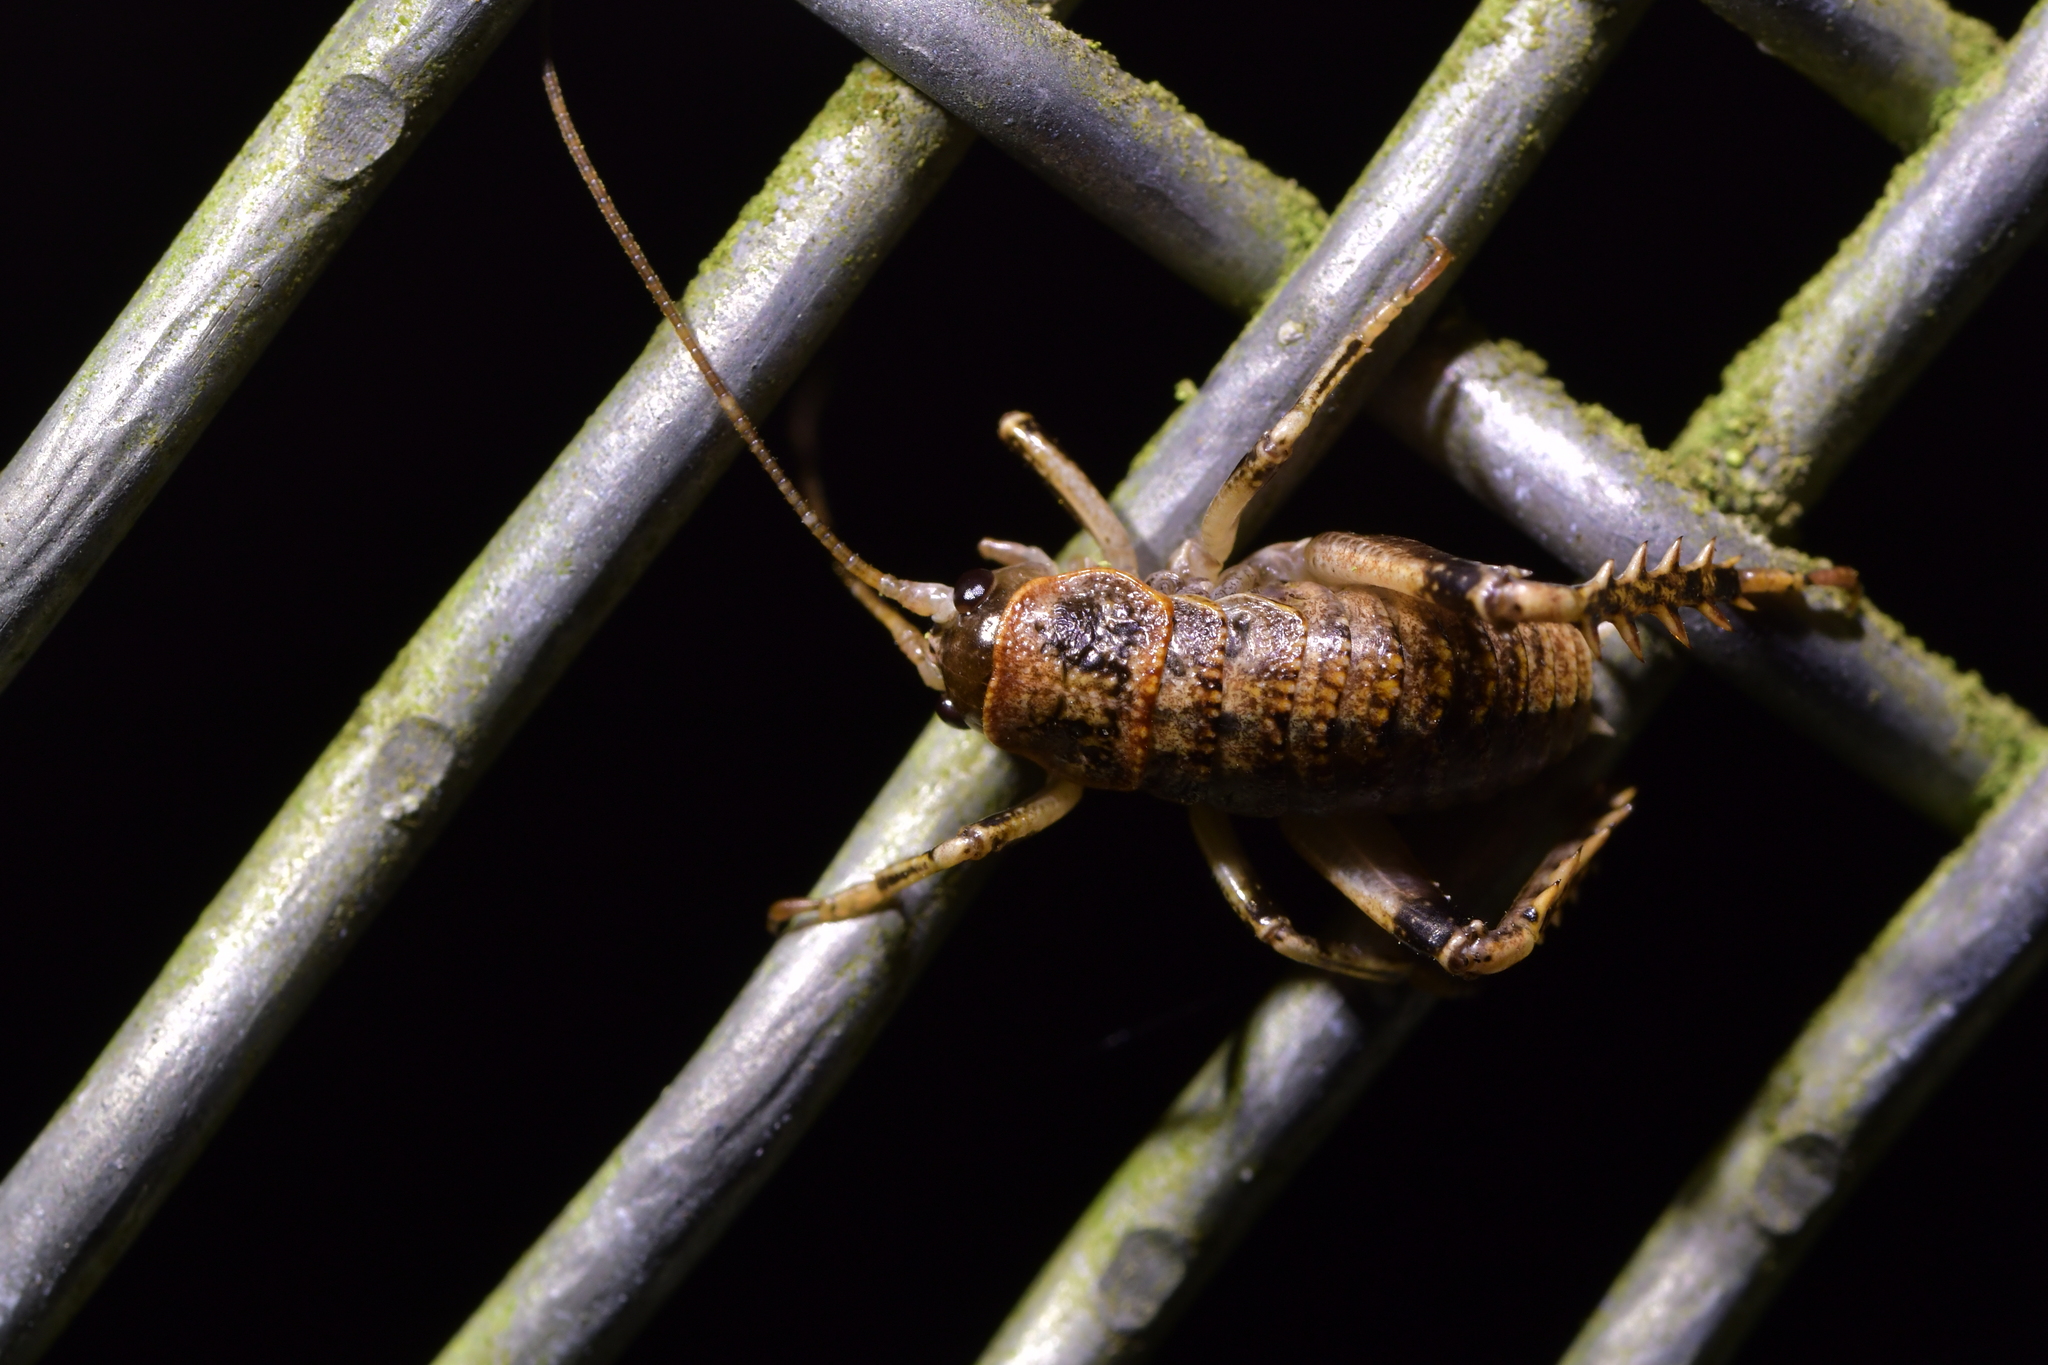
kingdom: Animalia
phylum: Arthropoda
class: Insecta
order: Orthoptera
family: Anostostomatidae
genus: Deinacrida
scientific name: Deinacrida rugosa
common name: Stephens island weta
